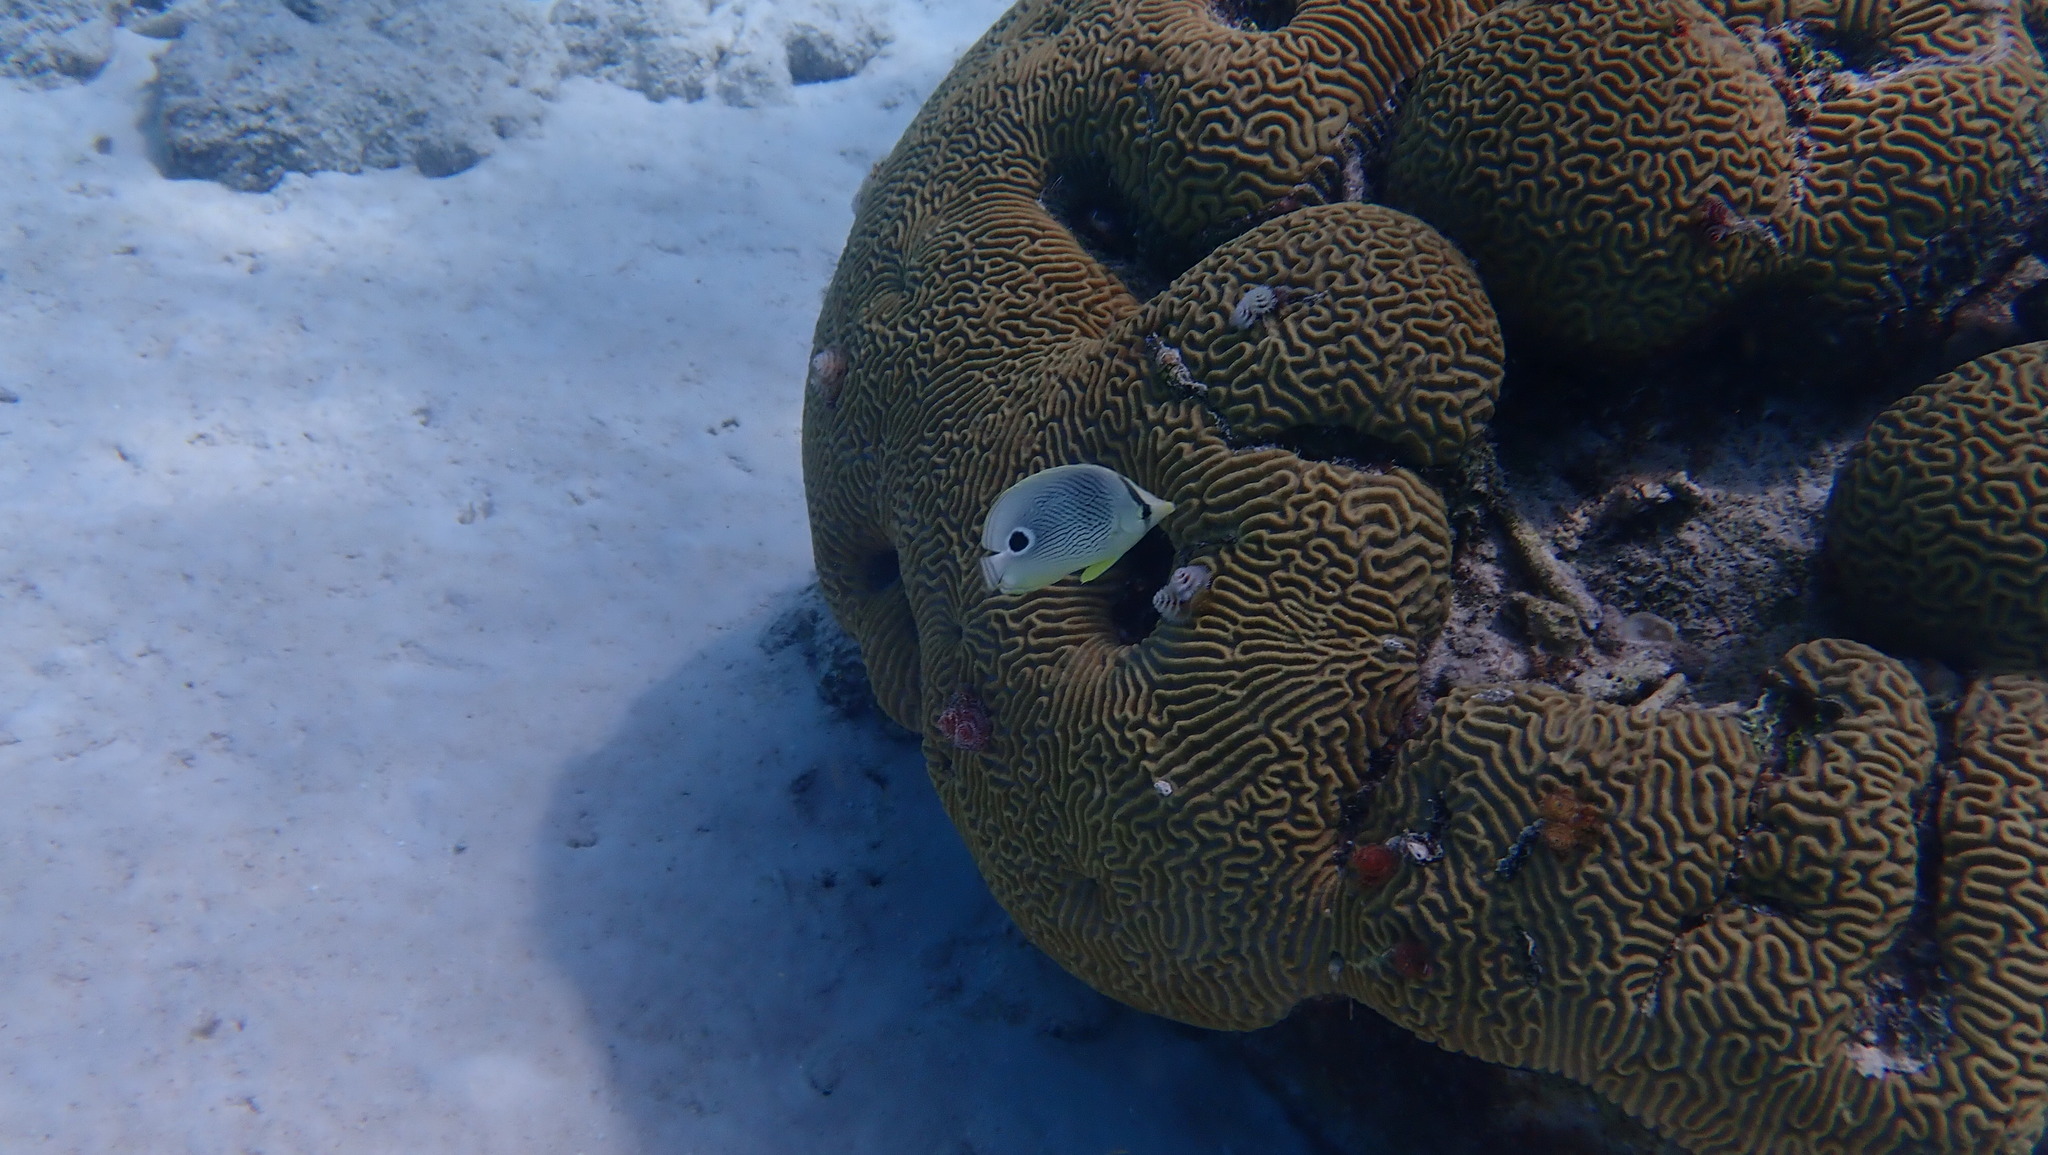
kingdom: Animalia
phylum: Chordata
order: Perciformes
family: Chaetodontidae
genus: Chaetodon
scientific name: Chaetodon capistratus
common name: Kete
